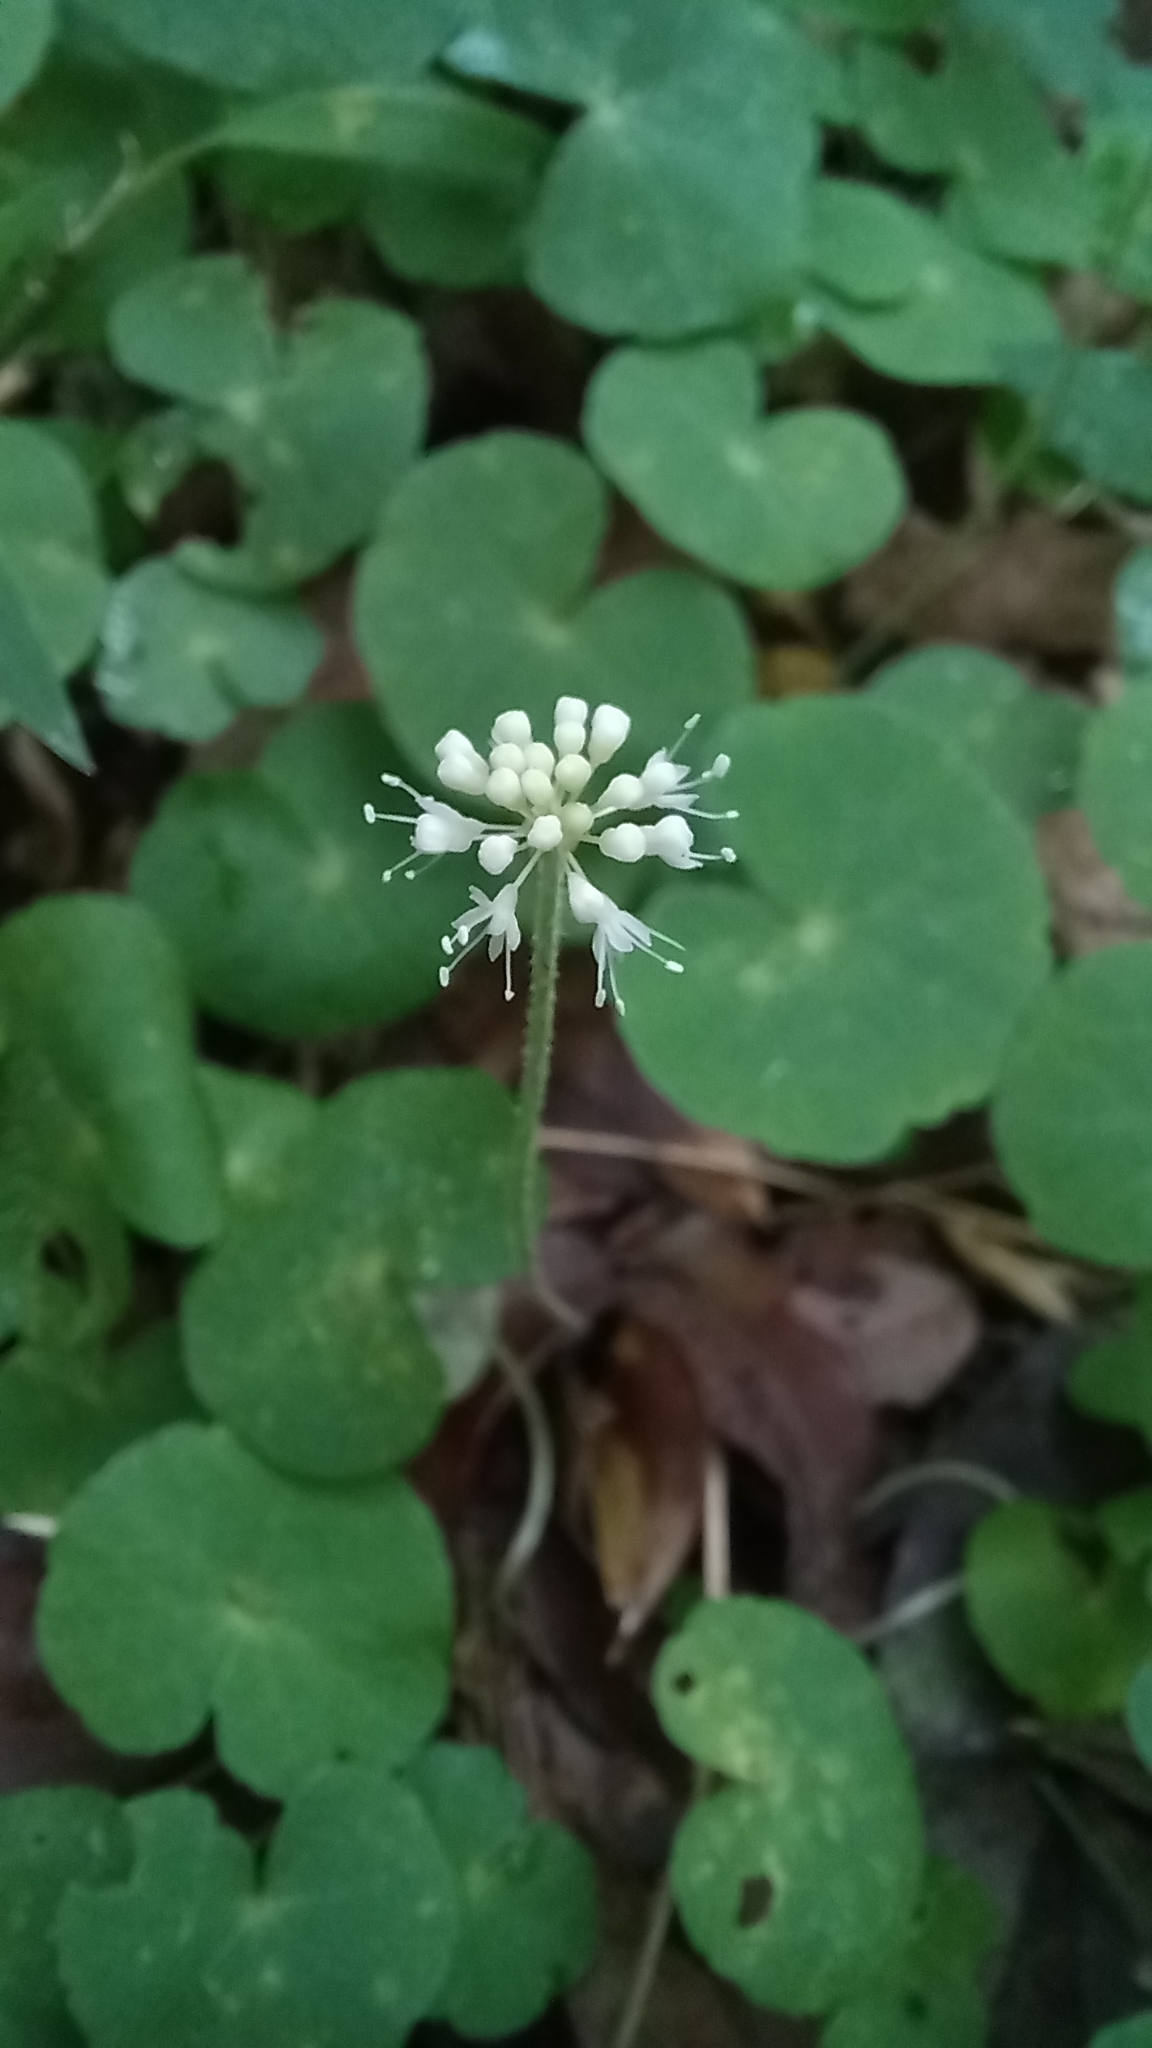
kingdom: Plantae
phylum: Tracheophyta
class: Magnoliopsida
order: Apiales
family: Araliaceae
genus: Hydrocotyle
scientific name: Hydrocotyle leucocephala
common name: Brazilian pennywort
